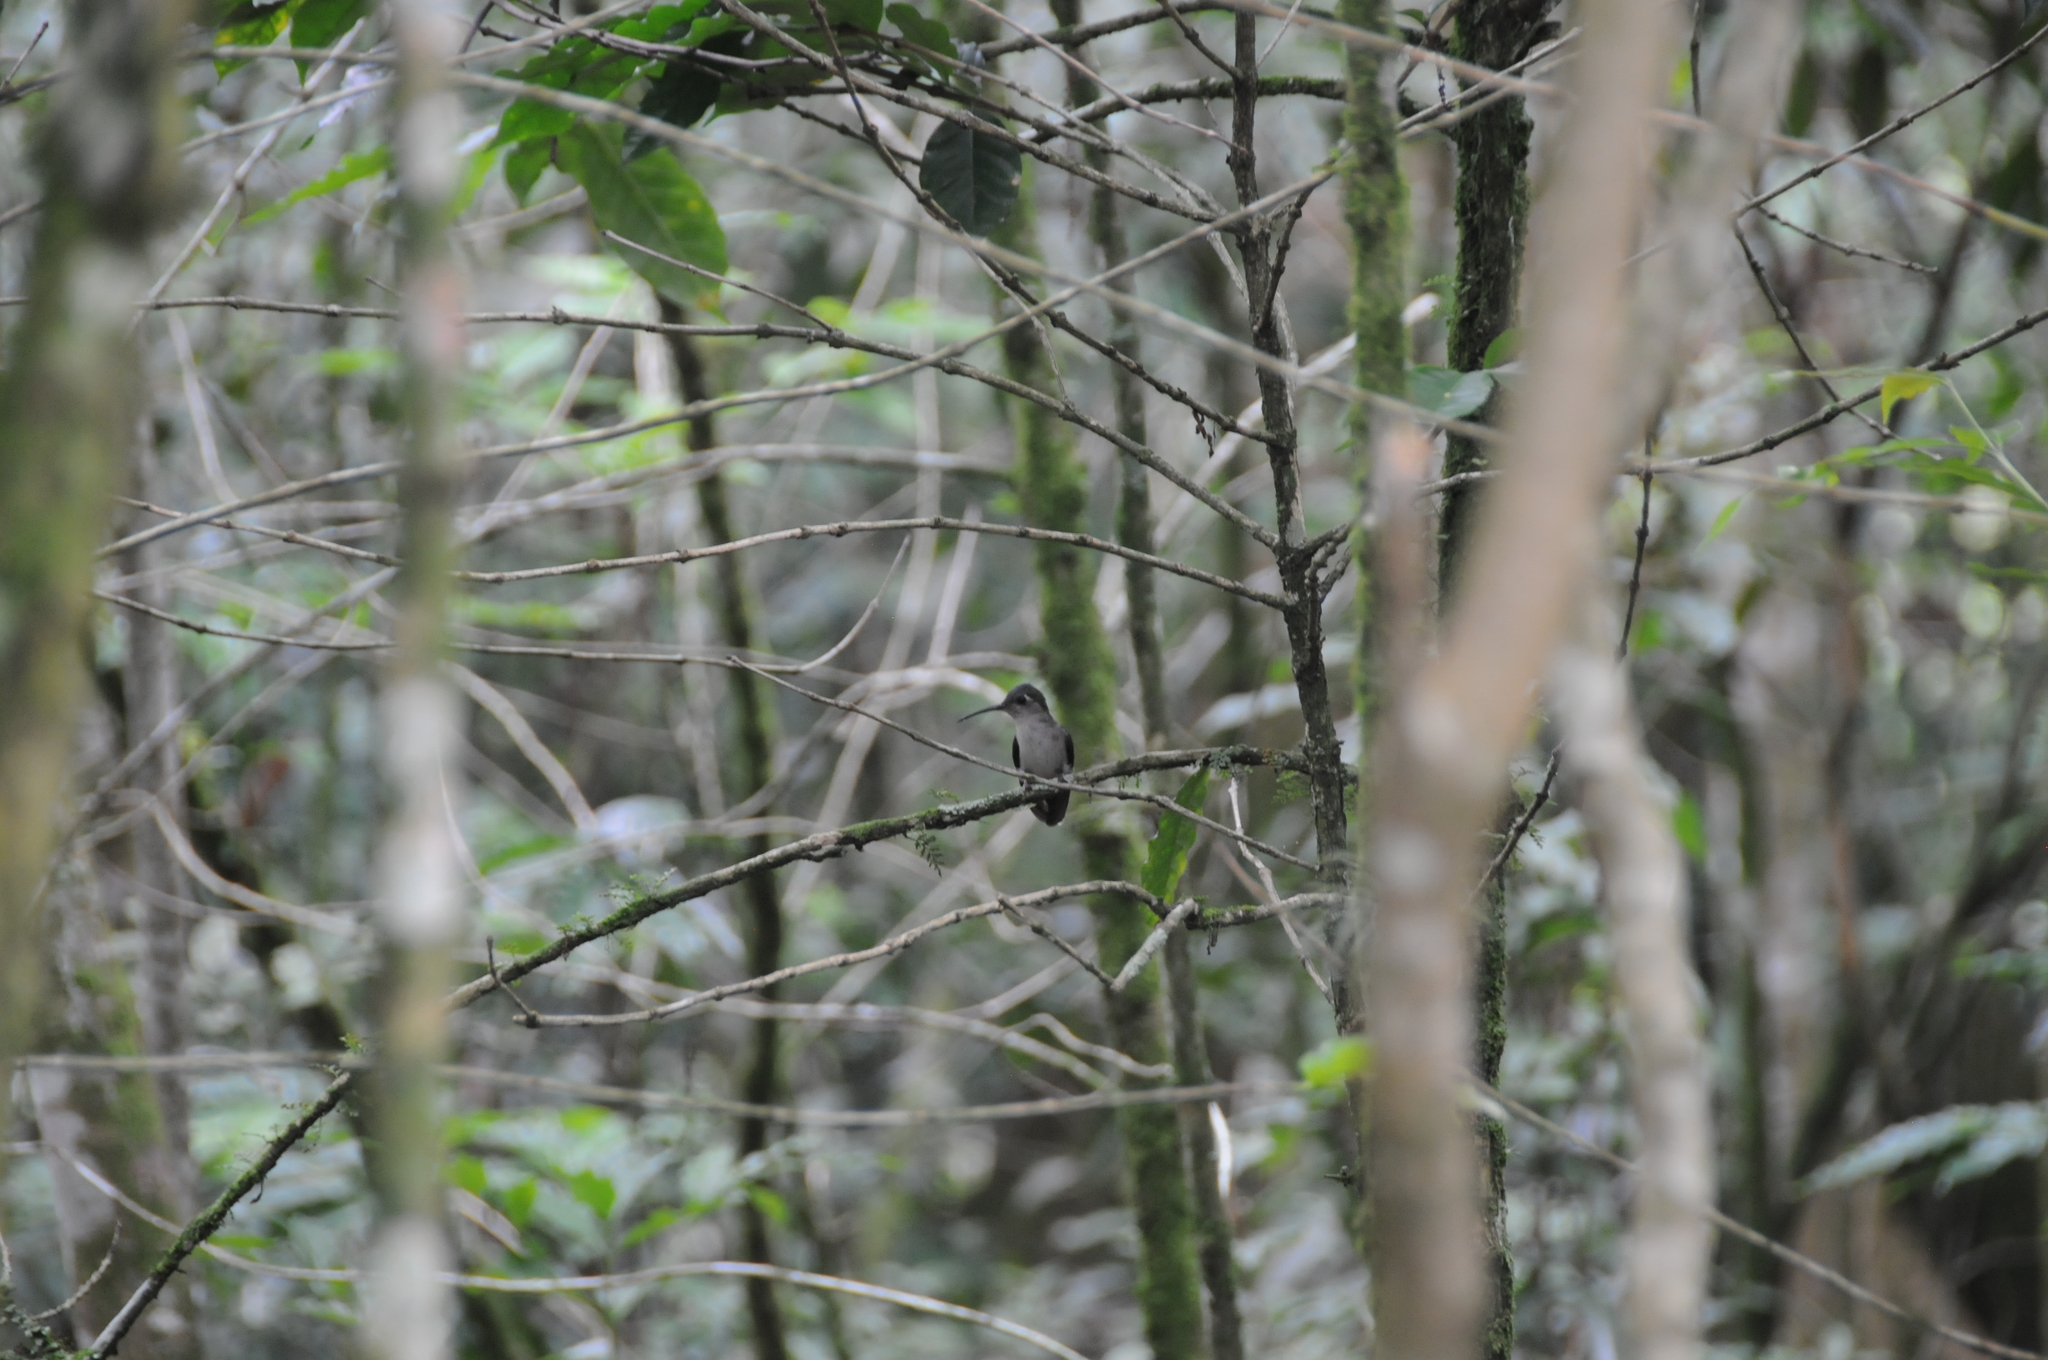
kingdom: Animalia
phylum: Chordata
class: Aves
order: Apodiformes
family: Trochilidae
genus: Pampa
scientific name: Pampa curvipennis
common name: Curve-winged sabrewing
